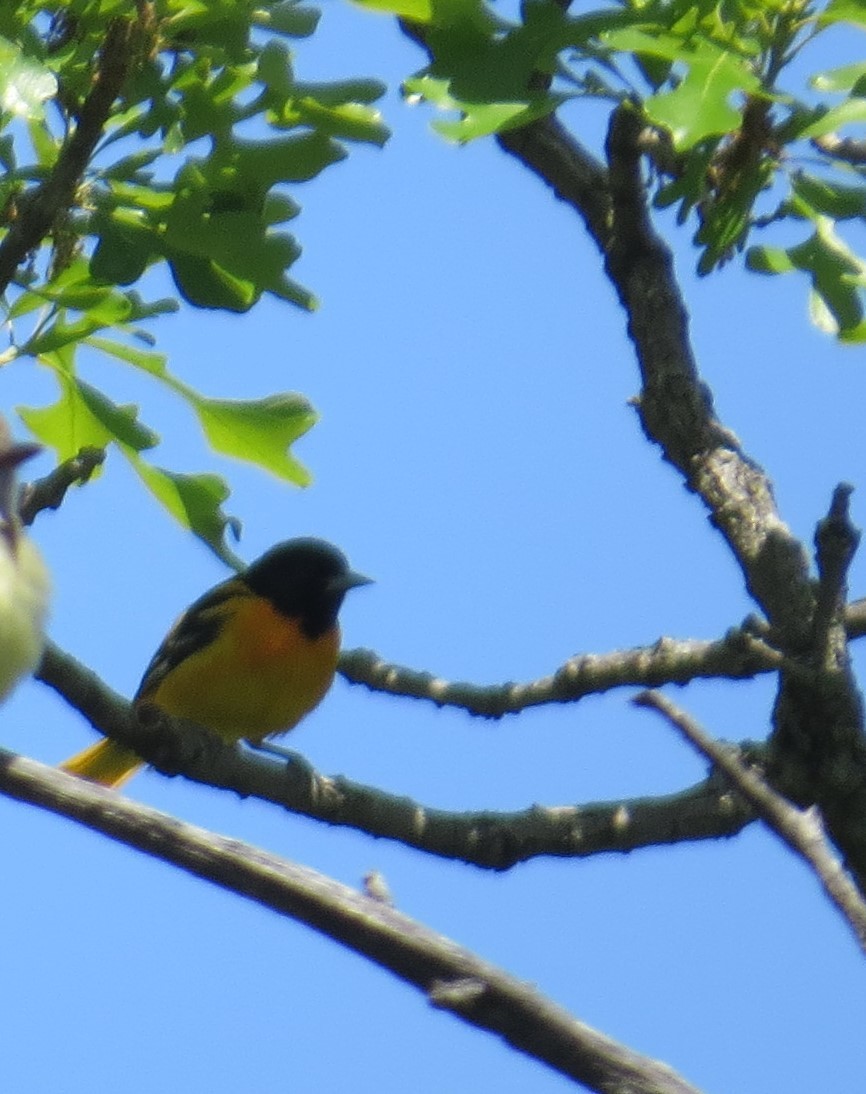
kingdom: Animalia
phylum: Chordata
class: Aves
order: Passeriformes
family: Icteridae
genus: Icterus
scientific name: Icterus galbula
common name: Baltimore oriole
